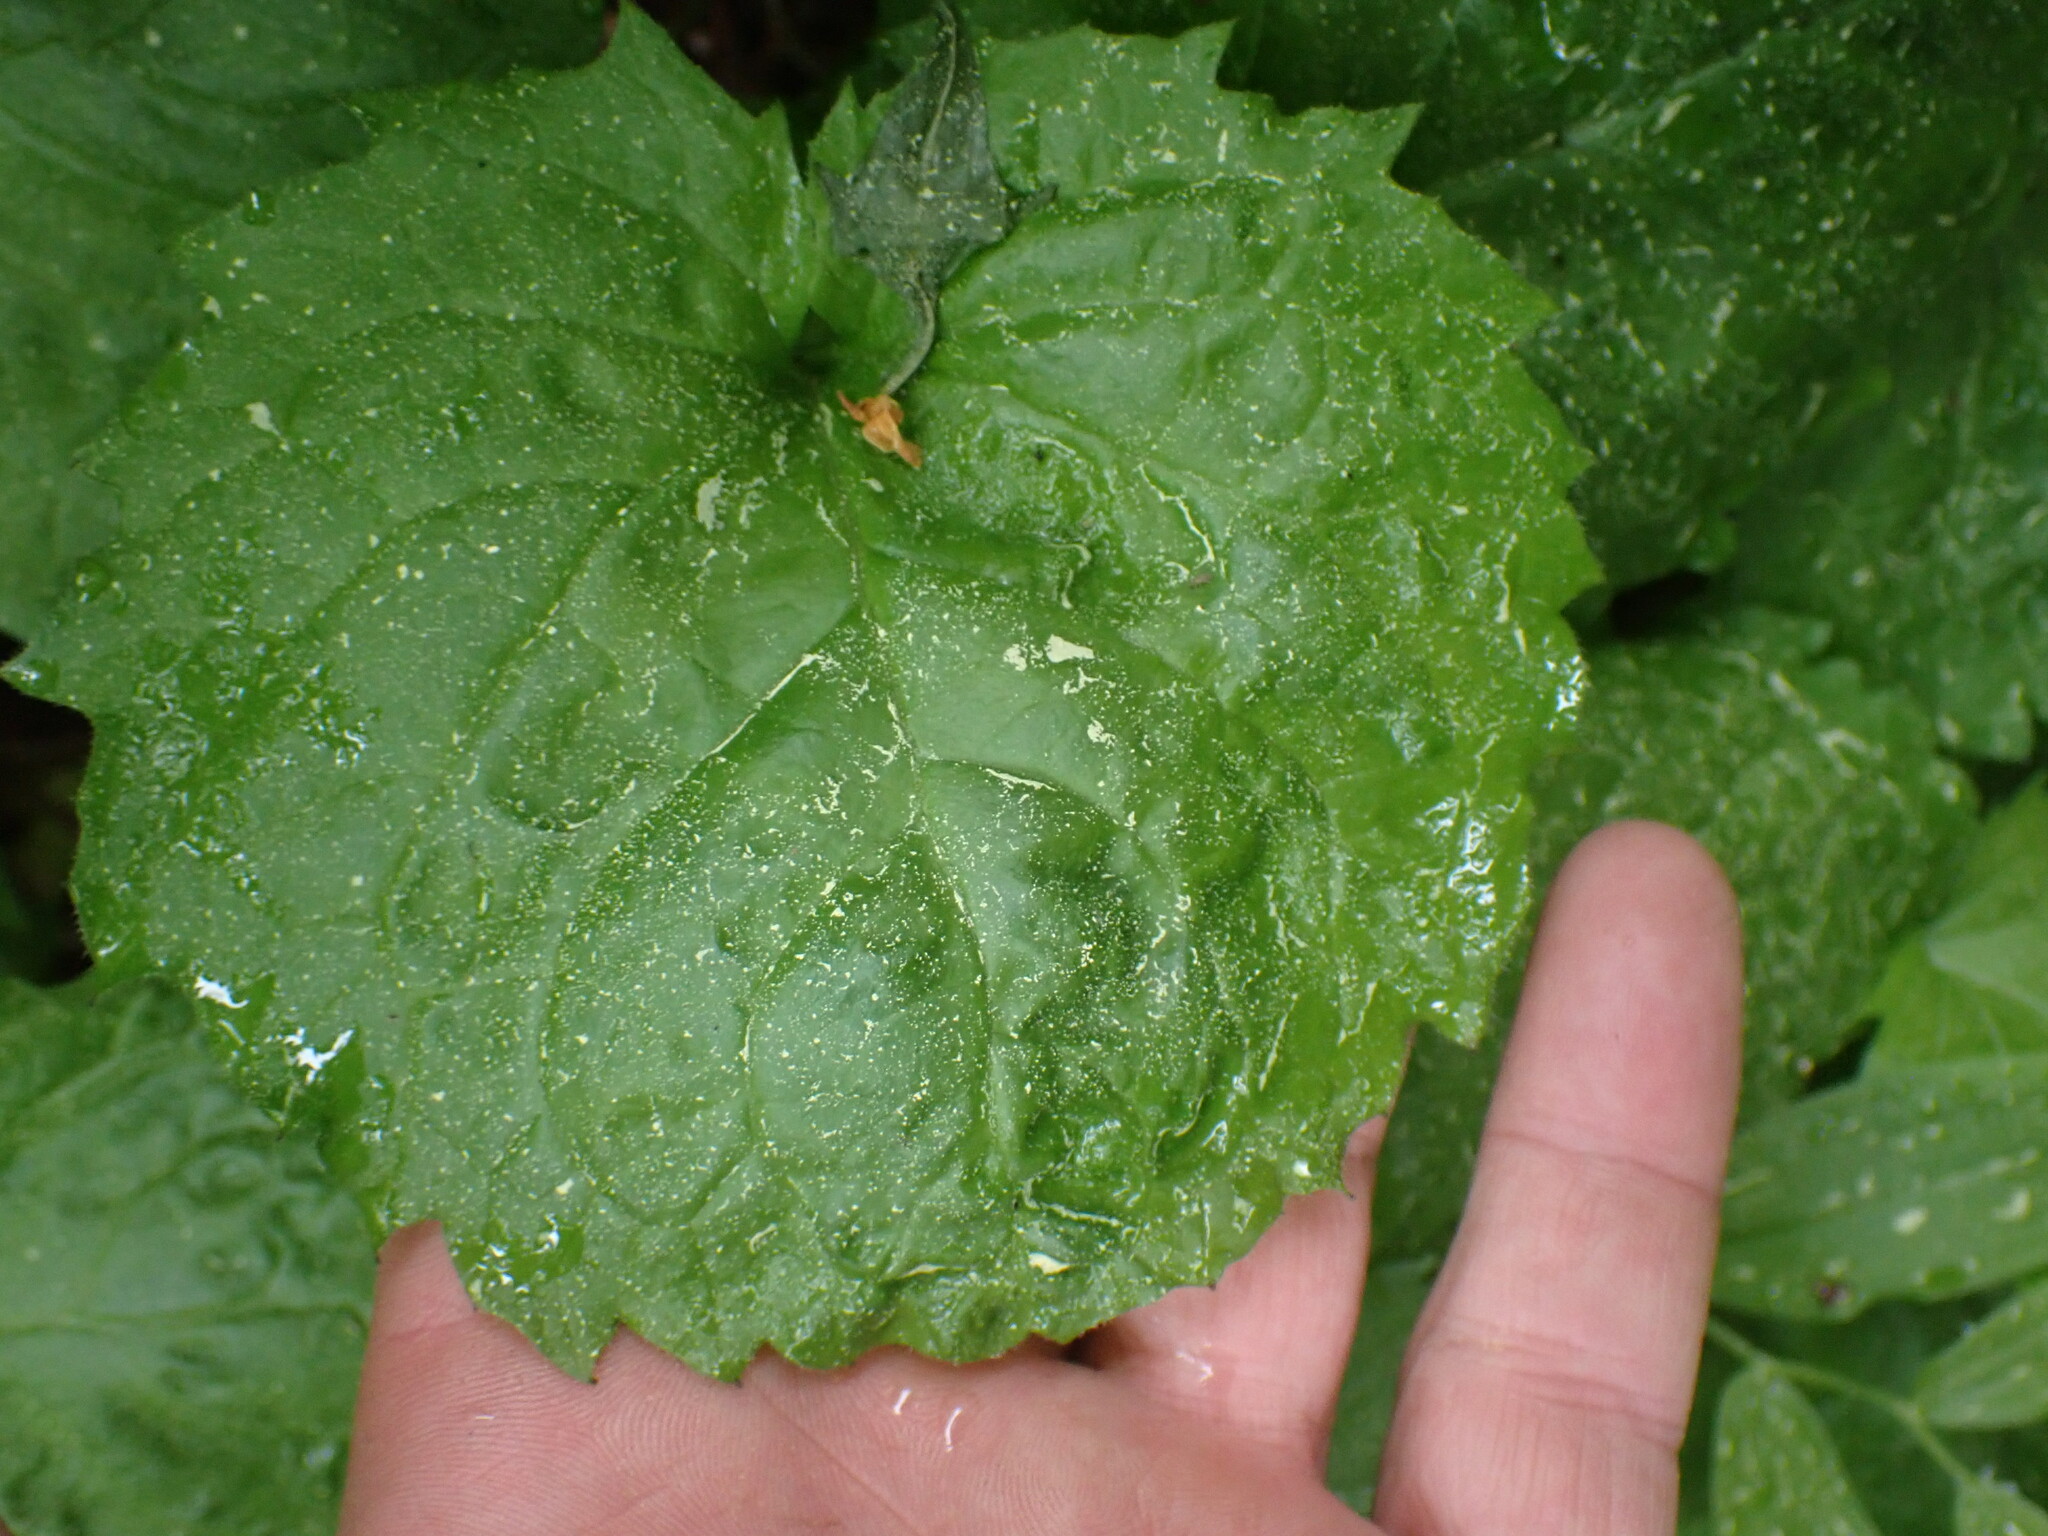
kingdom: Plantae
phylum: Tracheophyta
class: Magnoliopsida
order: Asterales
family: Asteraceae
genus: Arnica
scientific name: Arnica cordifolia
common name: Heart-leaf arnica
